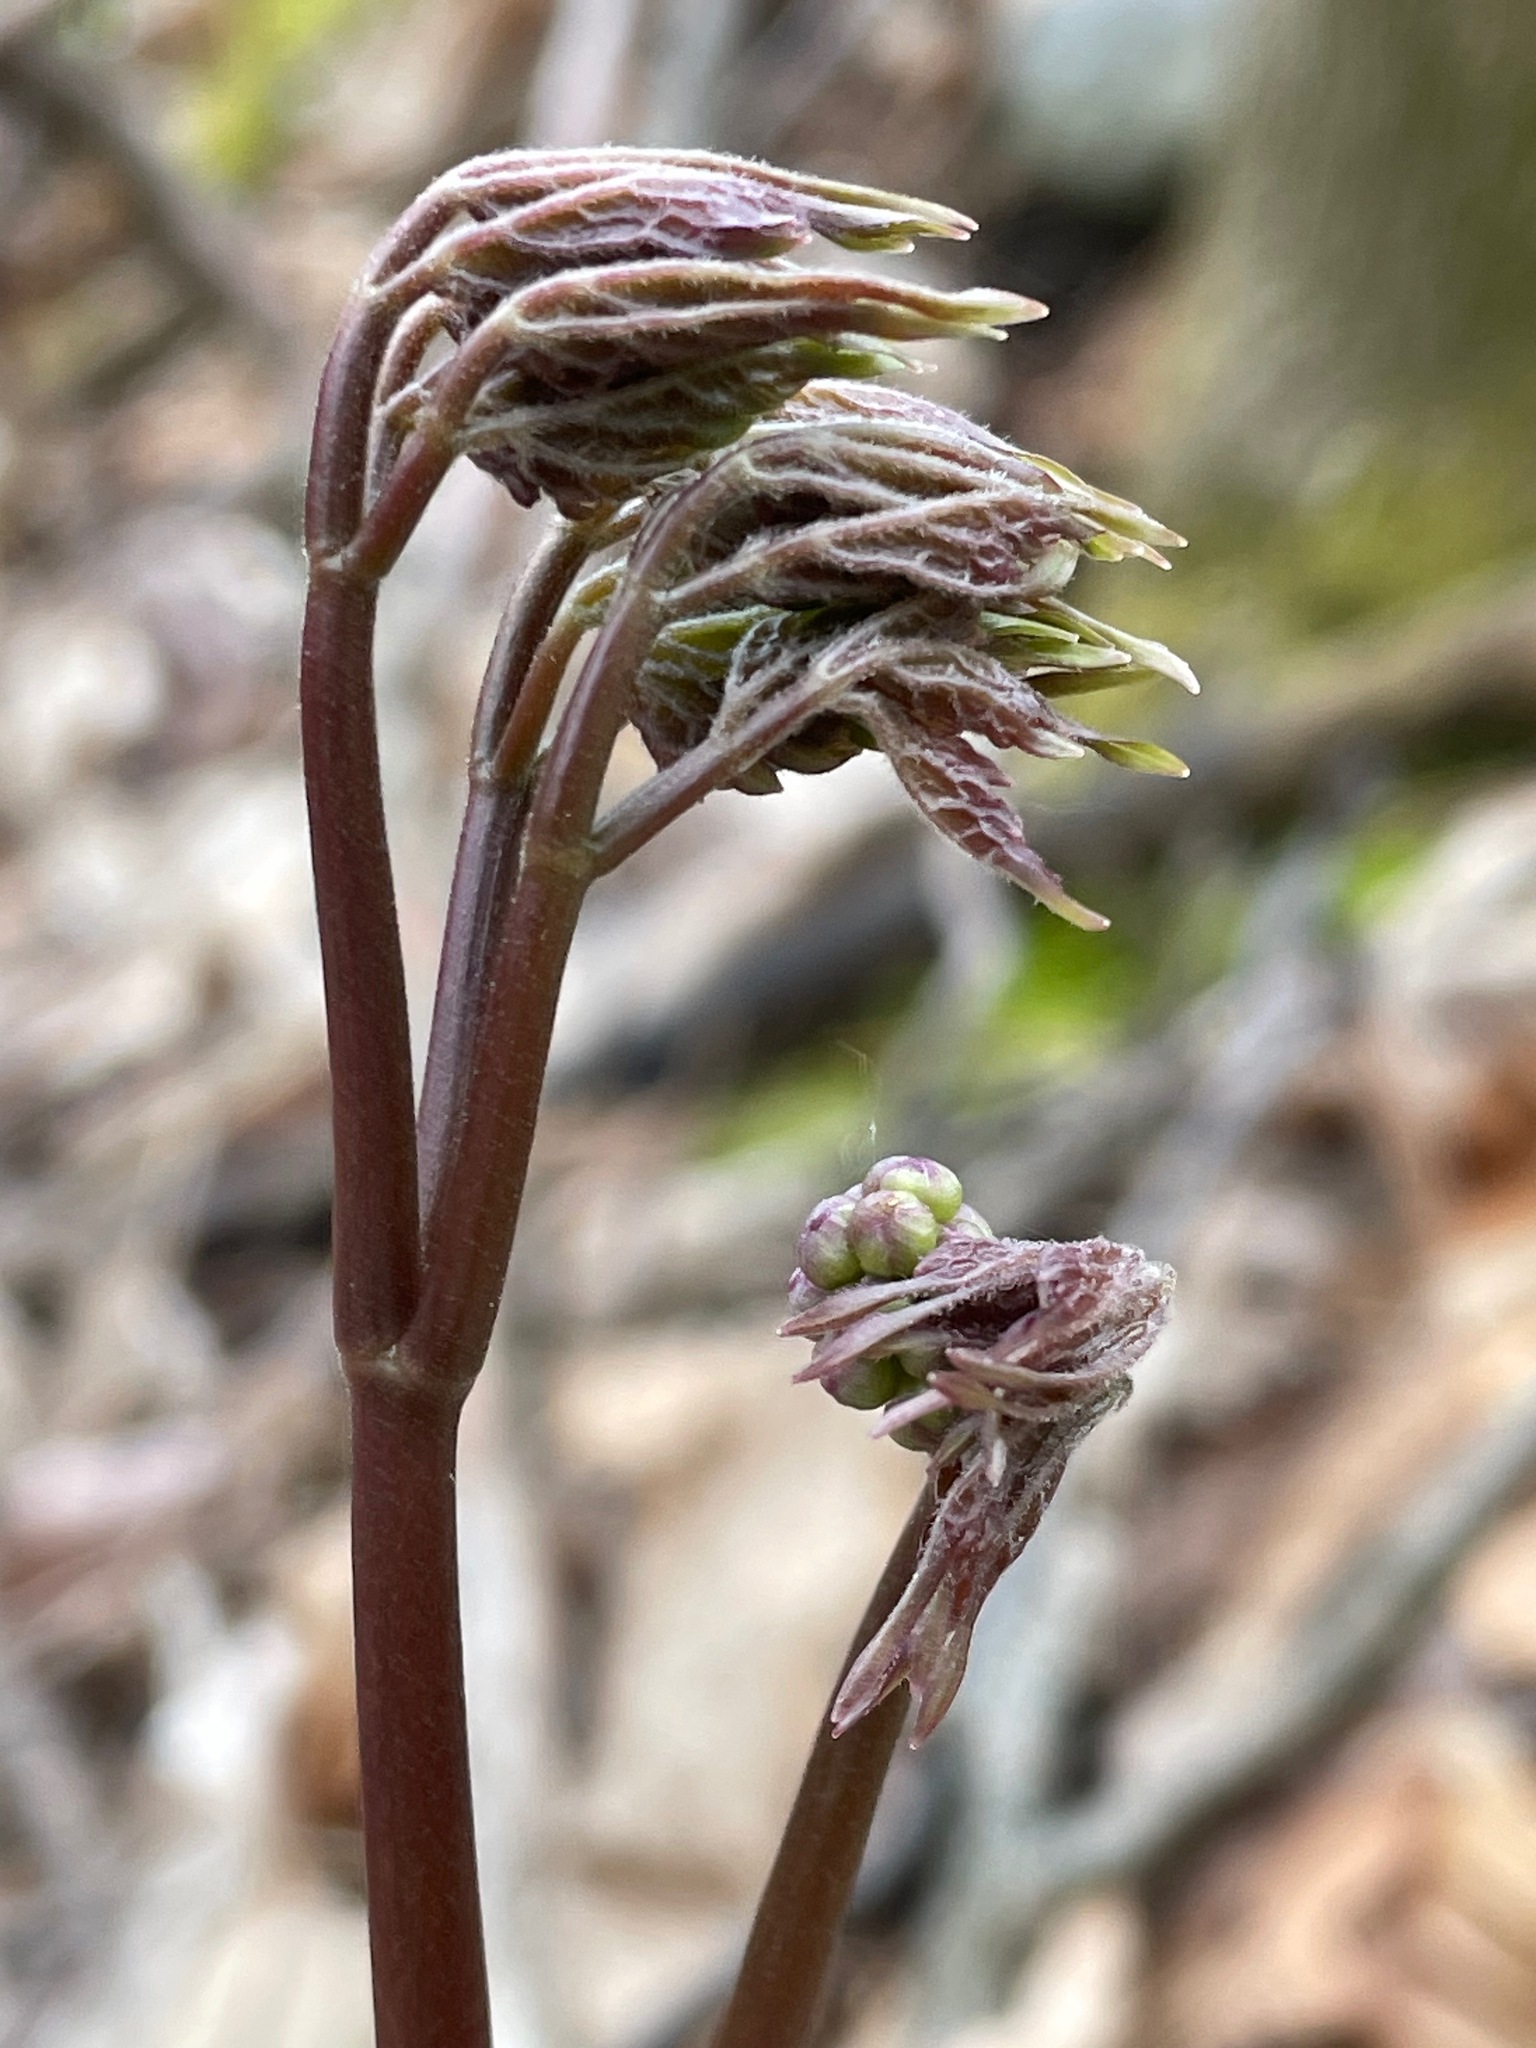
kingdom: Plantae
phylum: Tracheophyta
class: Magnoliopsida
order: Apiales
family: Araliaceae
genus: Aralia
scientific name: Aralia nudicaulis
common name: Wild sarsaparilla
